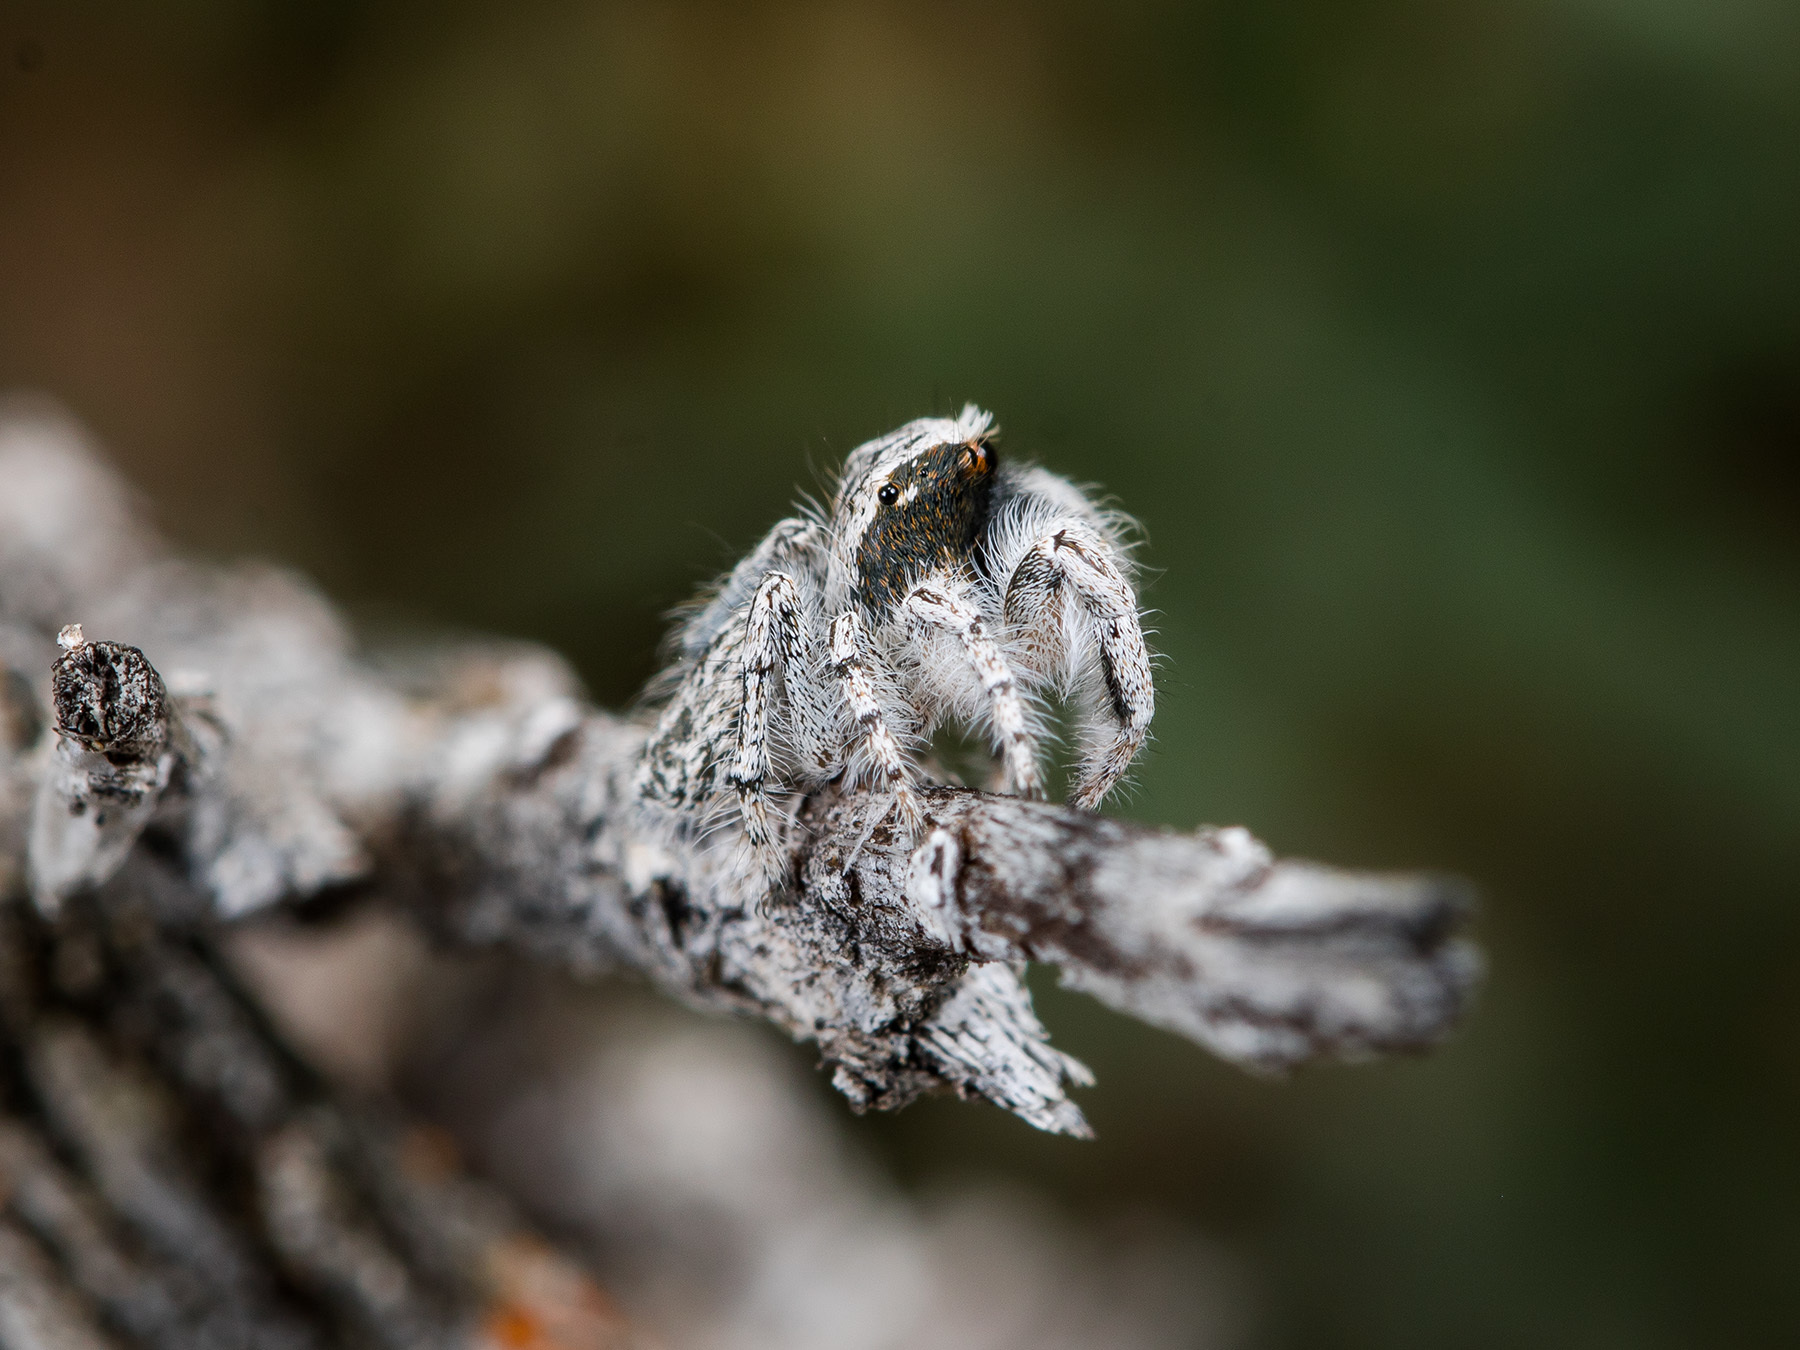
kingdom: Animalia
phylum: Arthropoda
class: Arachnida
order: Araneae
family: Salticidae
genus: Marusyllus
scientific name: Marusyllus aralicus
